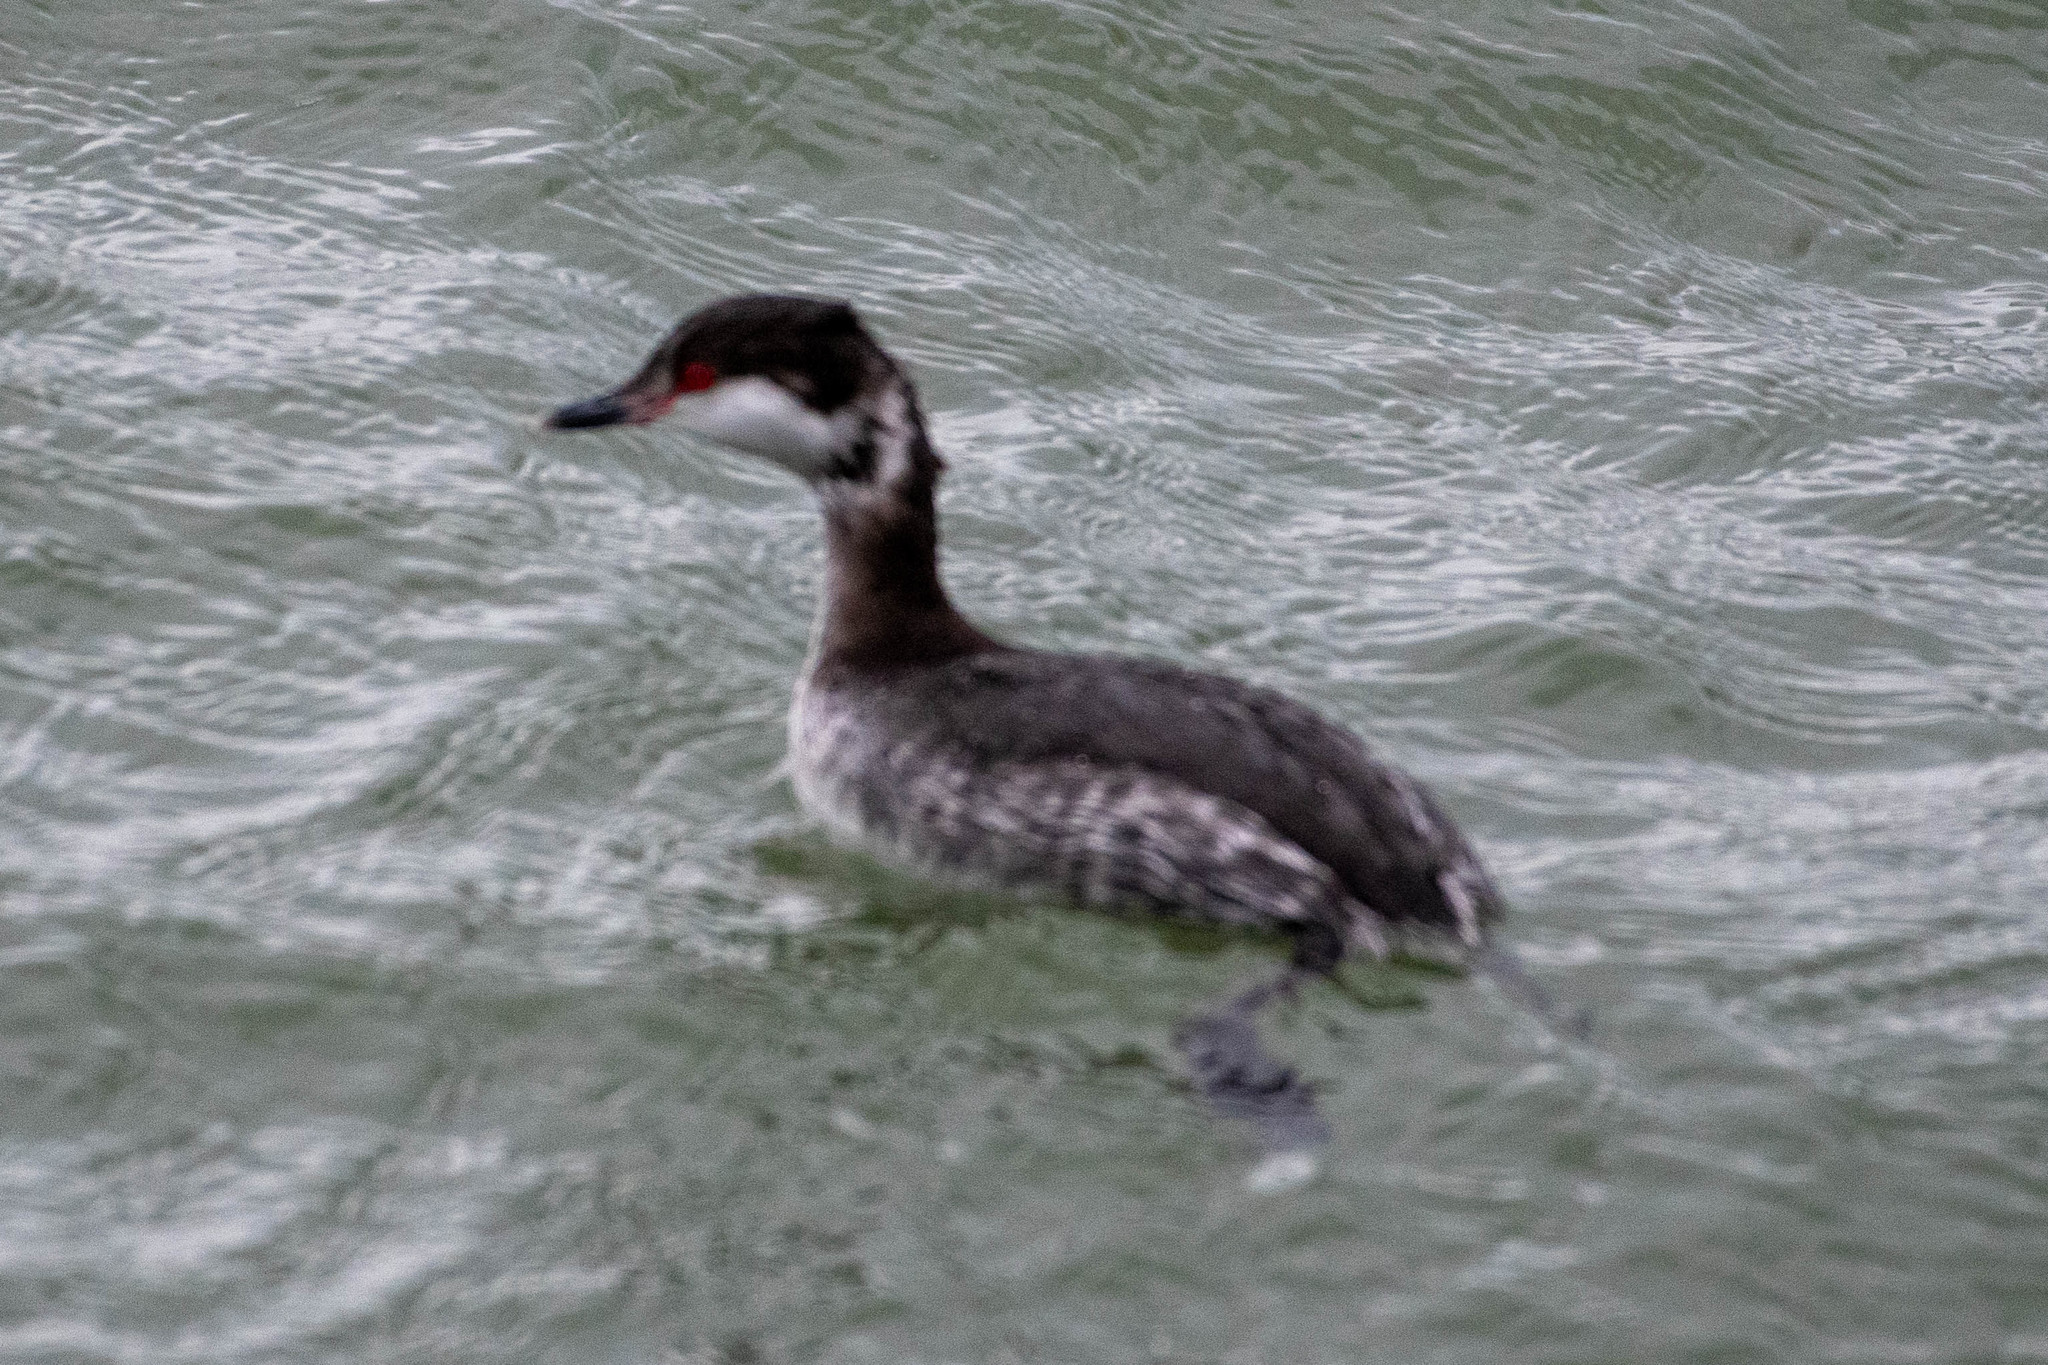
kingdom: Animalia
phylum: Chordata
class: Aves
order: Podicipediformes
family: Podicipedidae
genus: Podiceps
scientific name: Podiceps auritus
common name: Horned grebe
